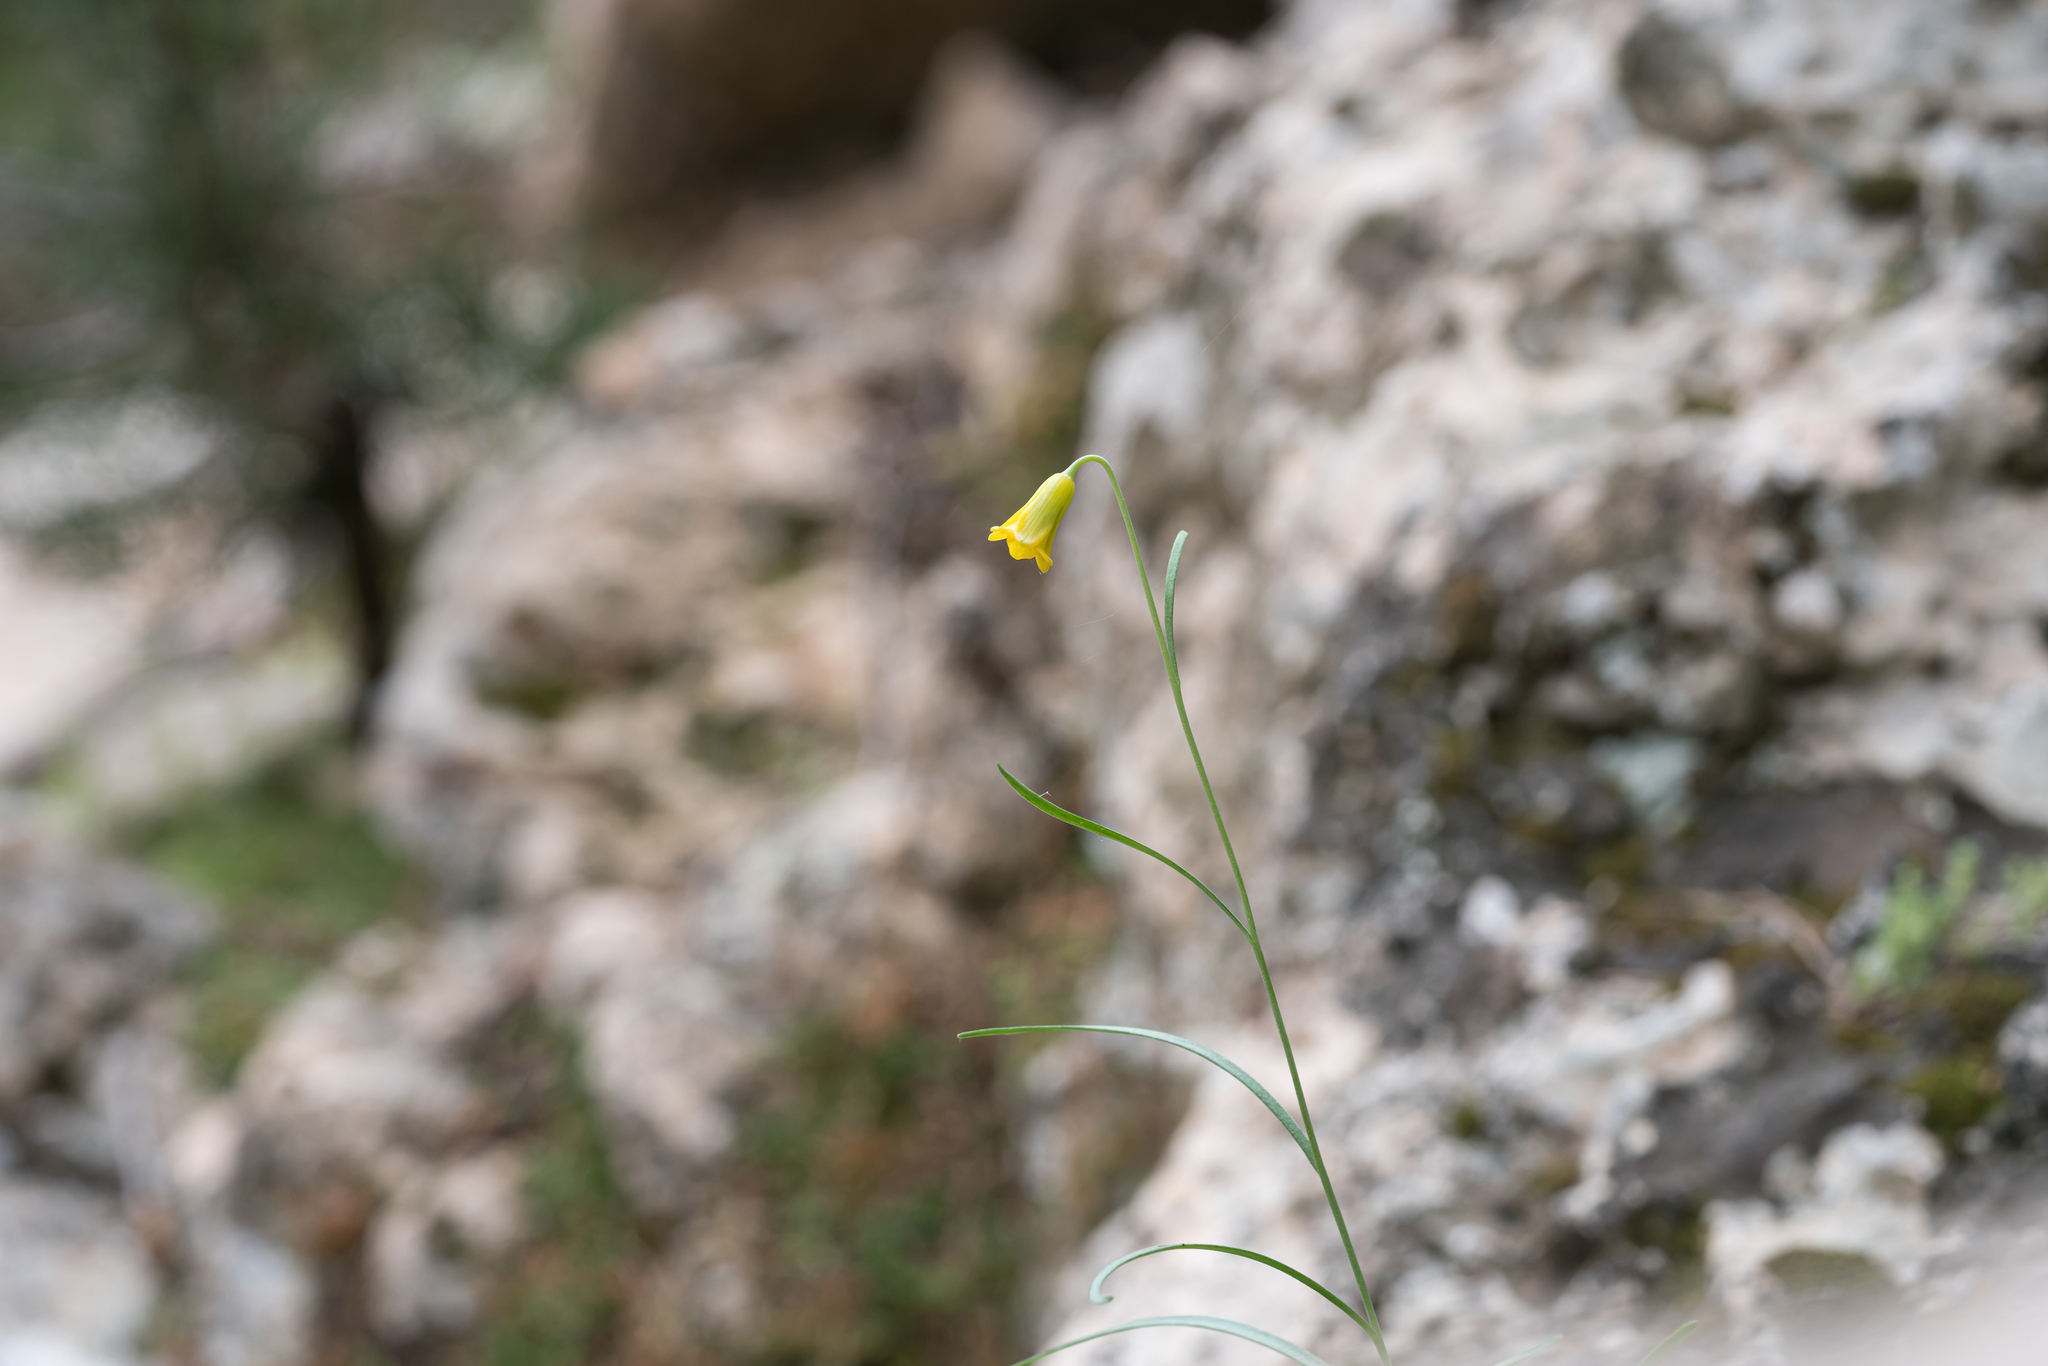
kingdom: Plantae
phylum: Tracheophyta
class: Liliopsida
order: Liliales
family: Liliaceae
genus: Fritillaria
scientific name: Fritillaria rhodia
